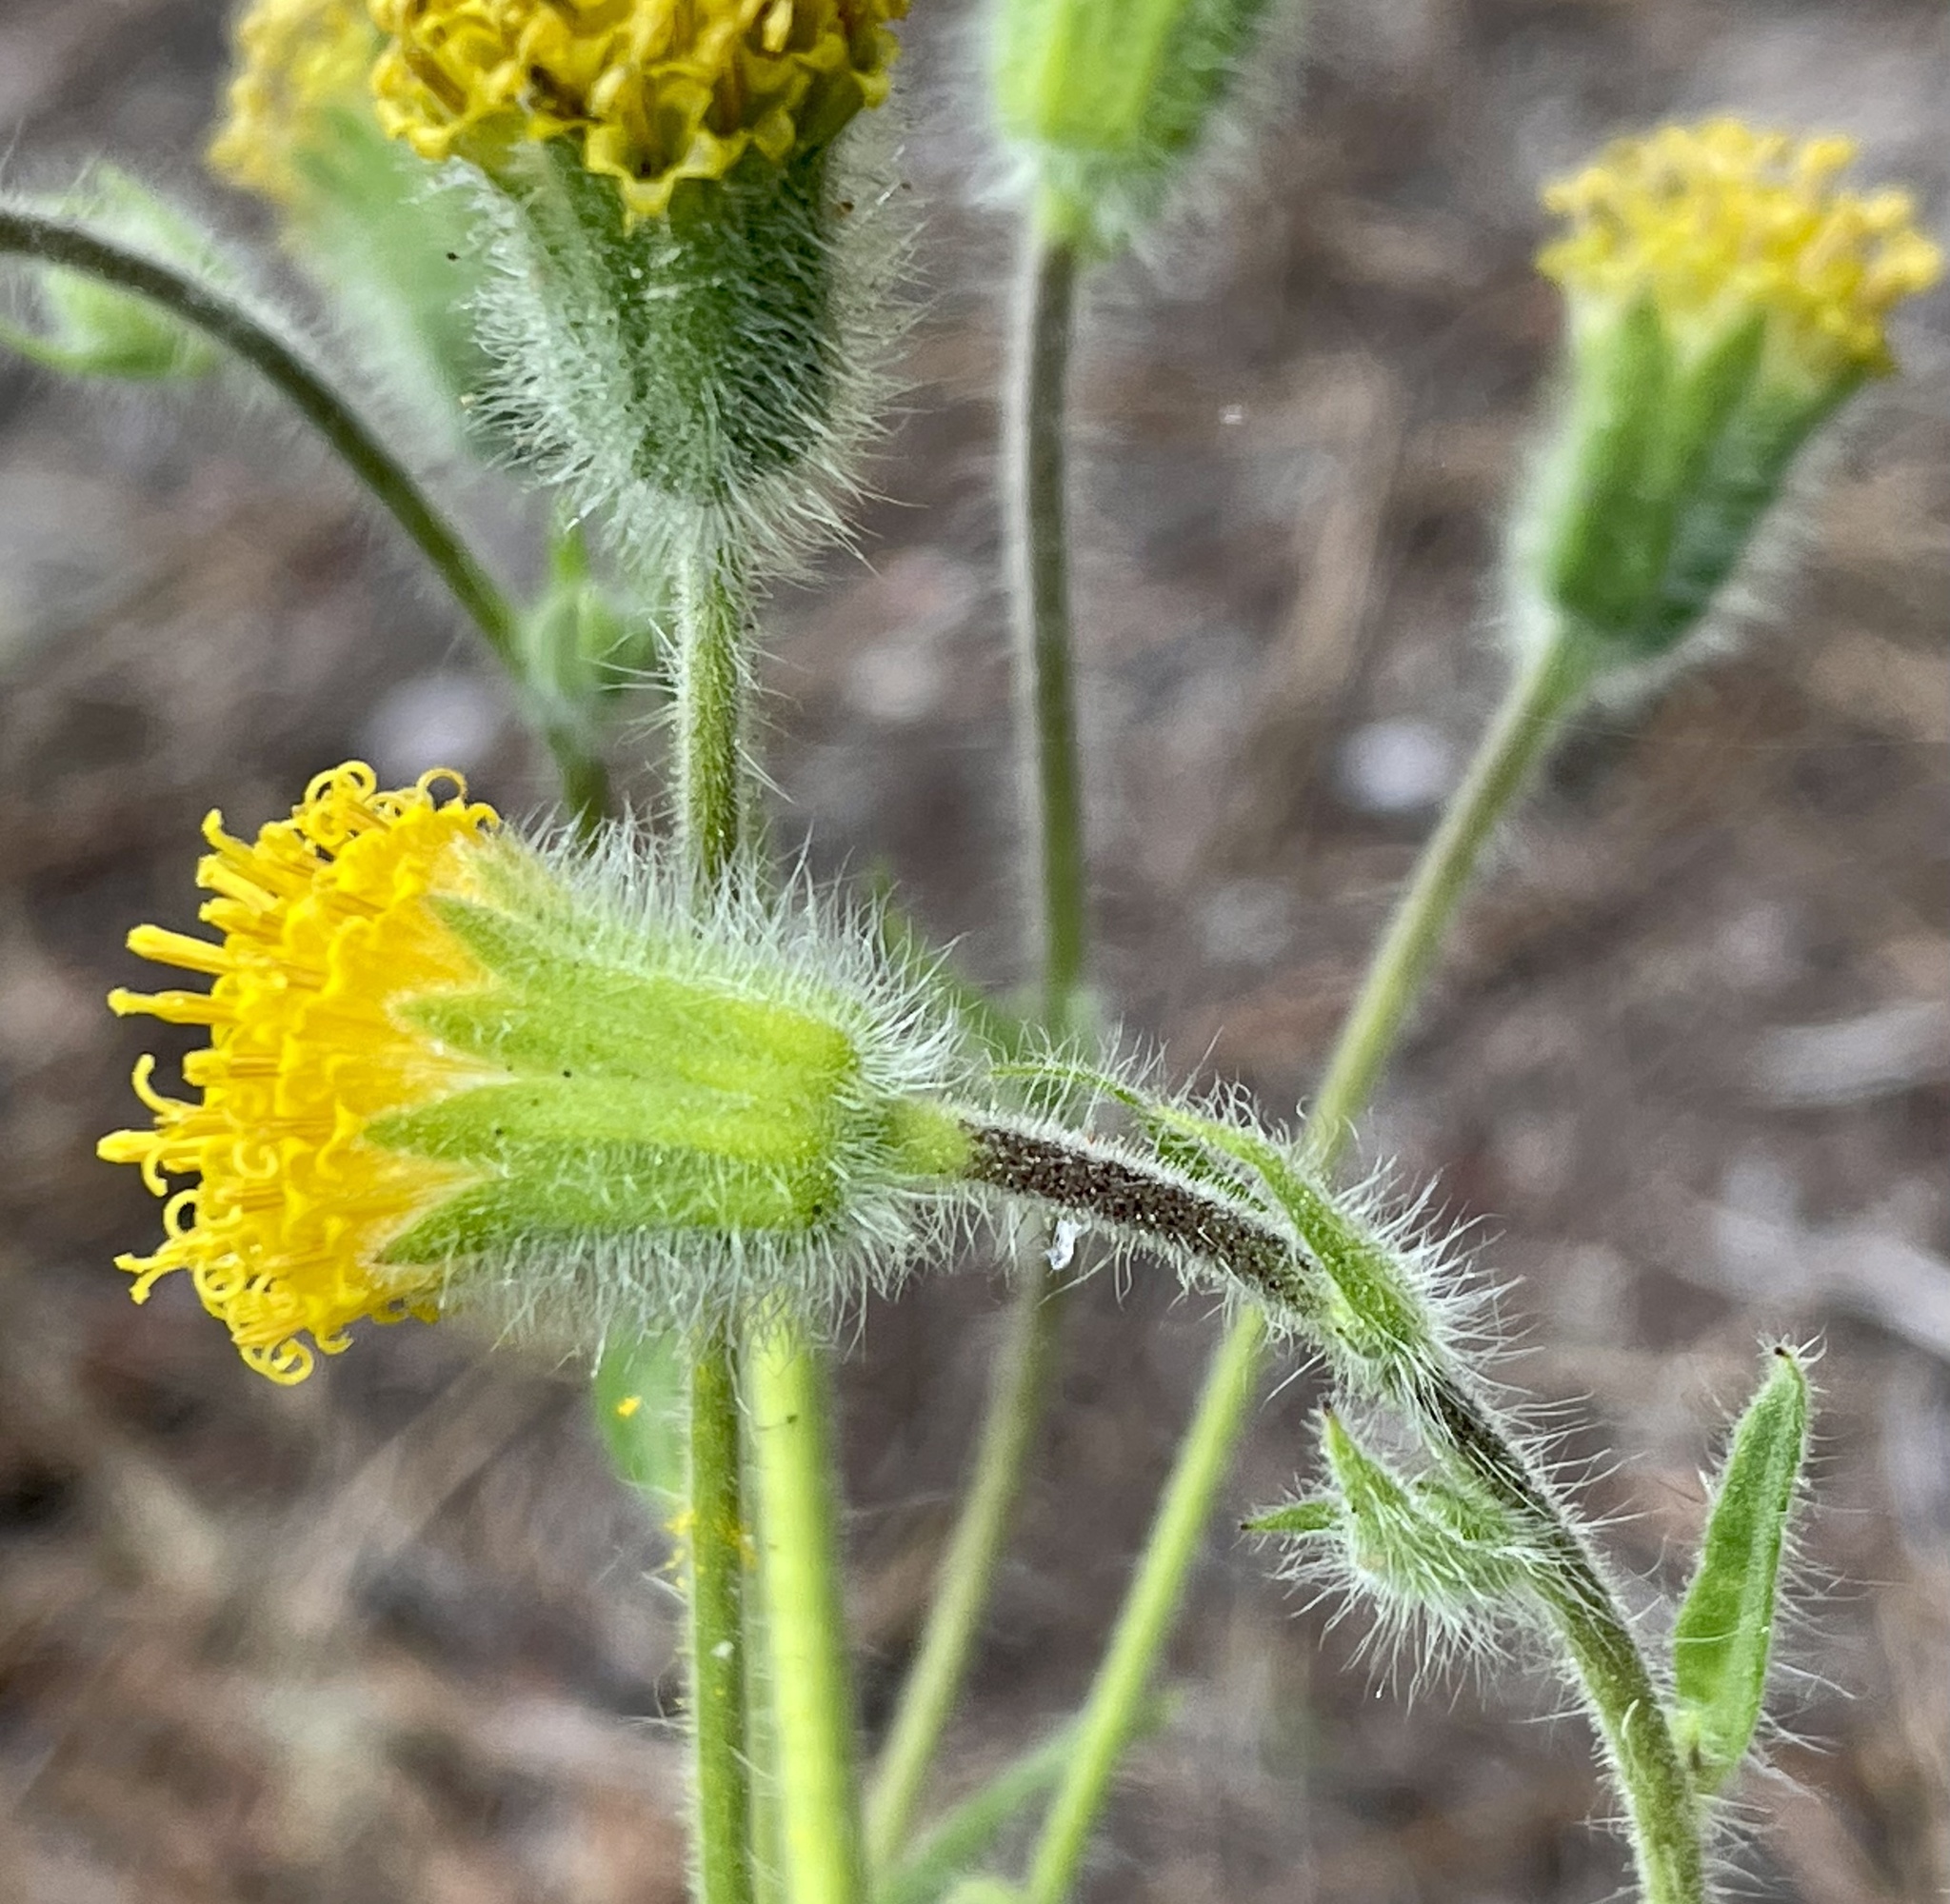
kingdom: Plantae
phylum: Tracheophyta
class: Magnoliopsida
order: Asterales
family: Asteraceae
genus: Arnica
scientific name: Arnica discoidea
